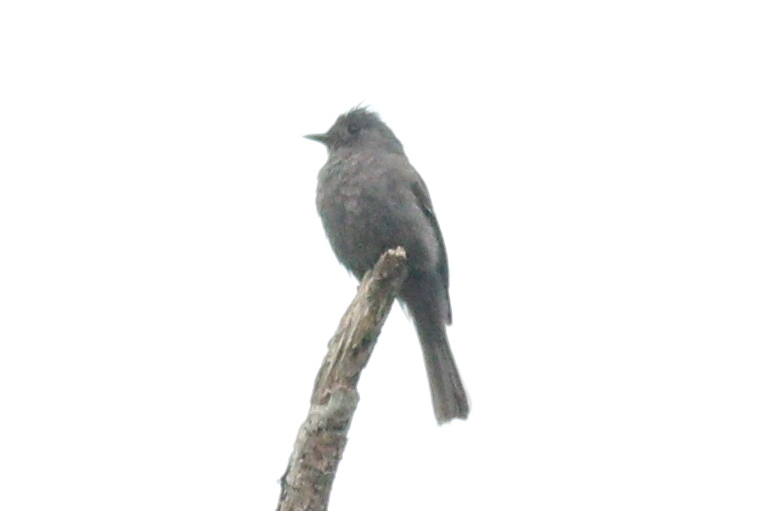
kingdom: Animalia
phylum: Chordata
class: Aves
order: Passeriformes
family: Tyrannidae
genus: Contopus
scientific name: Contopus fumigatus
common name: Smoke-colored pewee
